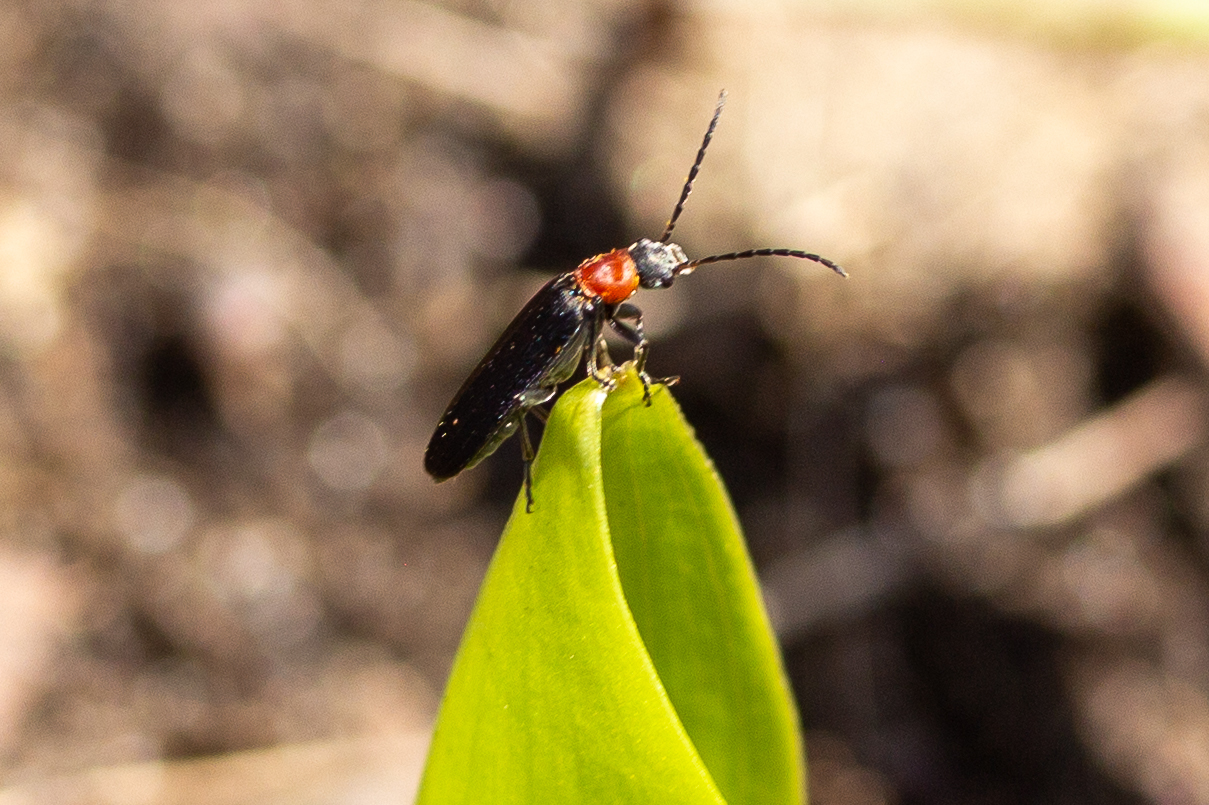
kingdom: Animalia
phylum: Arthropoda
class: Insecta
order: Coleoptera
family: Oedemeridae
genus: Ischnomera
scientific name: Ischnomera
